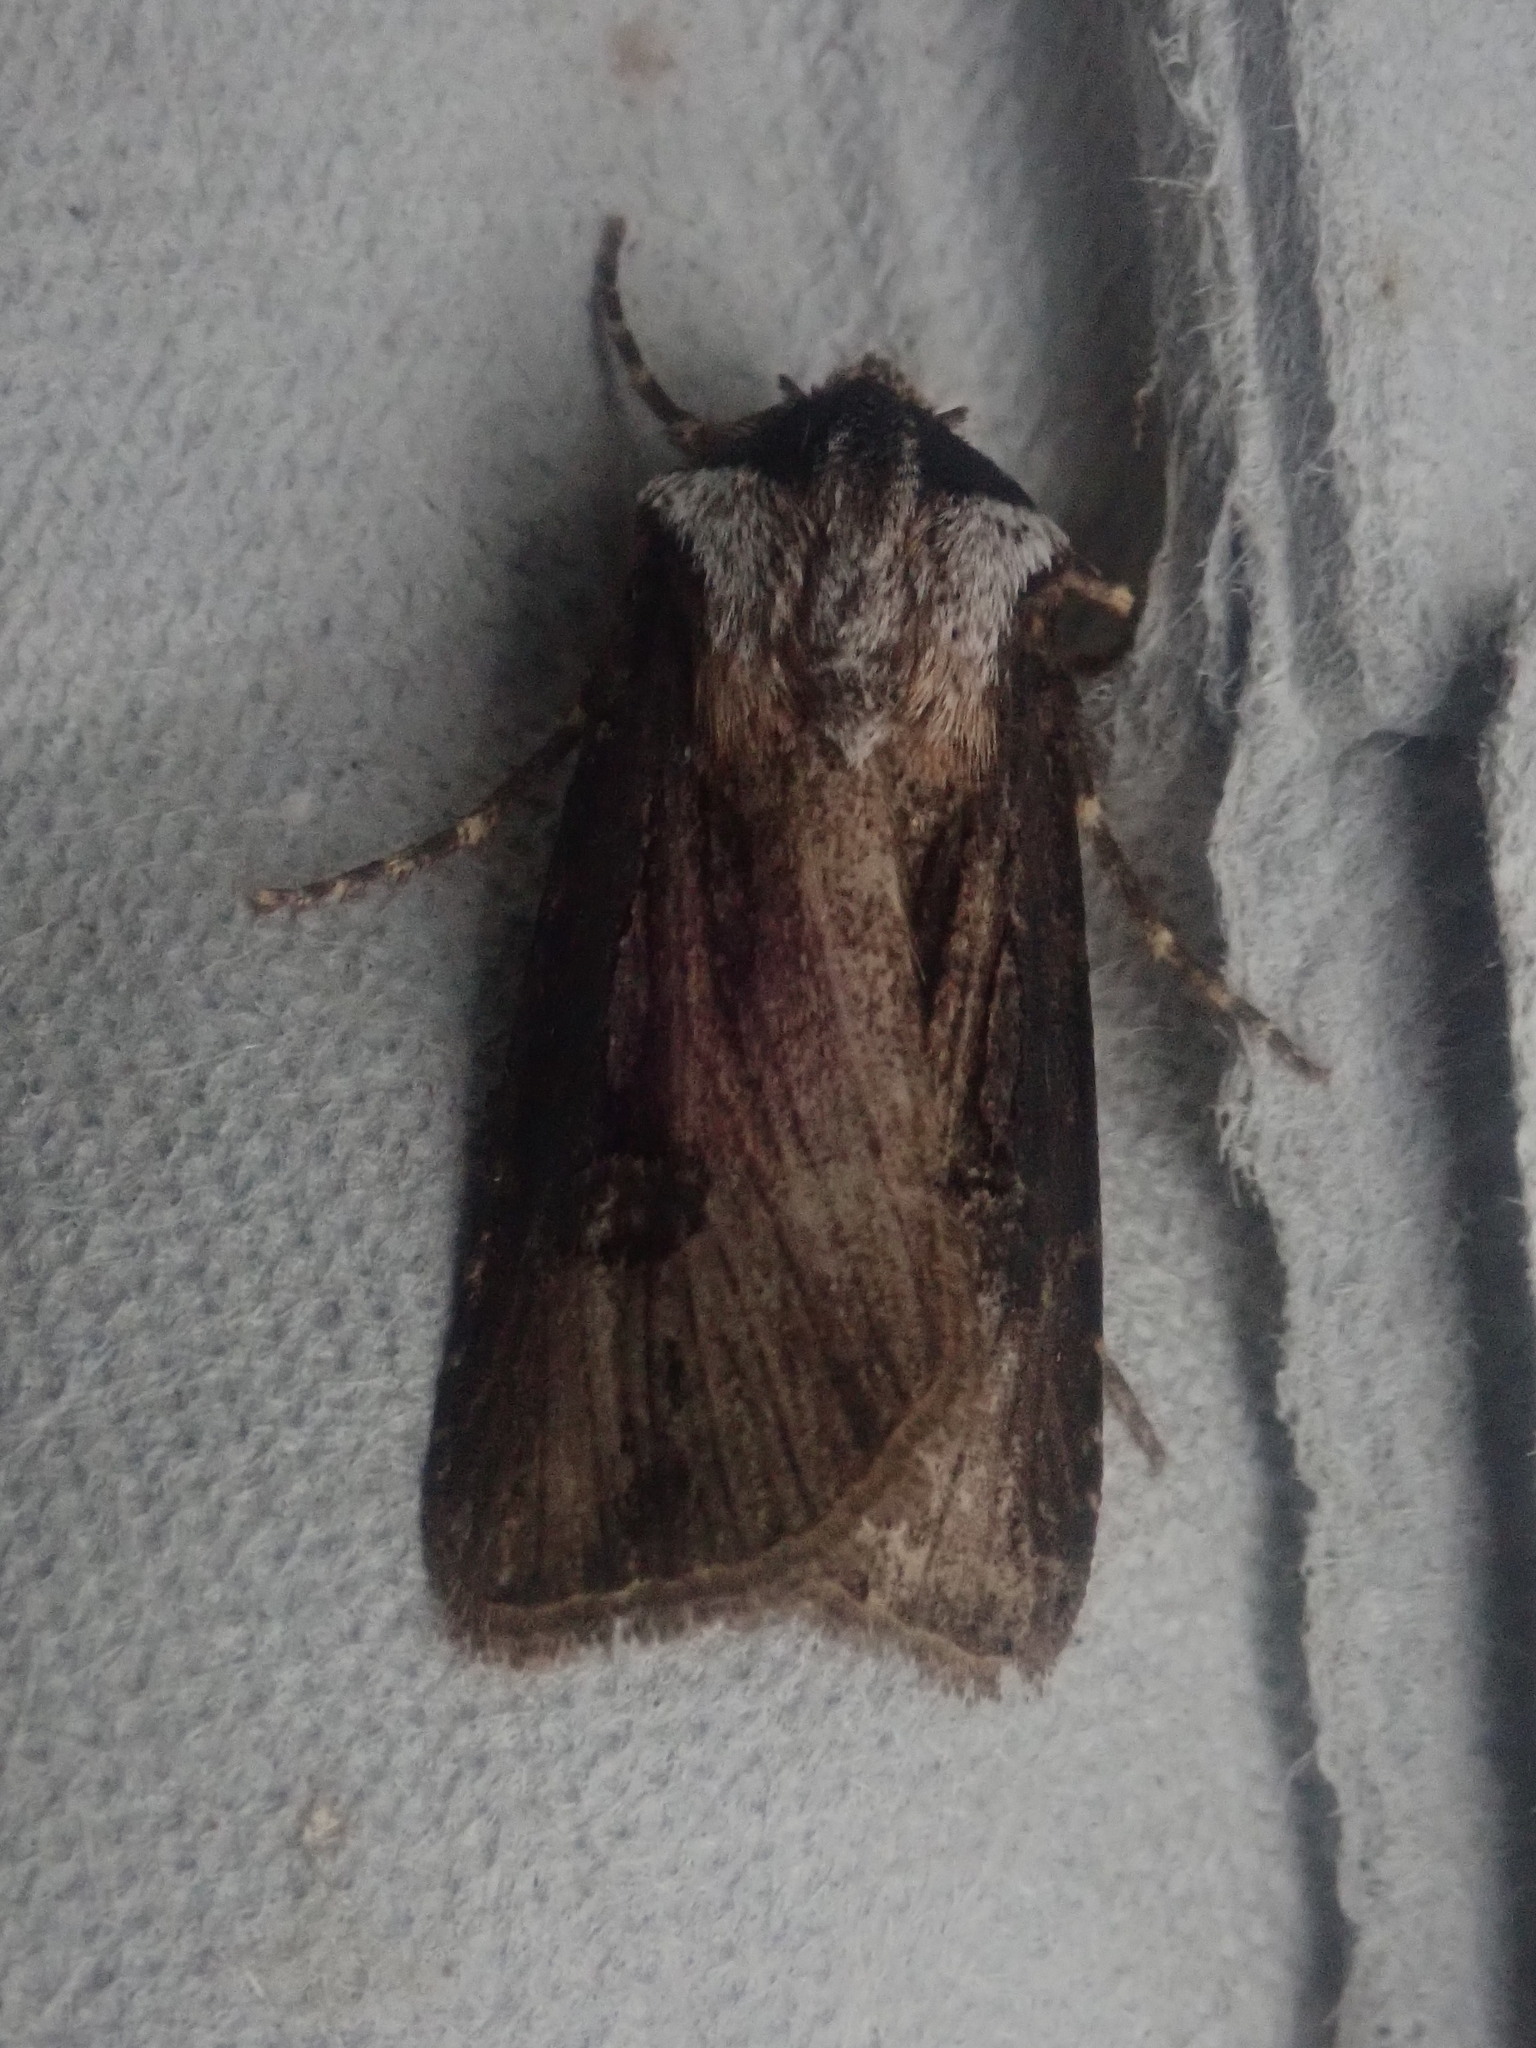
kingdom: Animalia
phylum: Arthropoda
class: Insecta
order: Lepidoptera
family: Noctuidae
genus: Agrotis
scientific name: Agrotis venerabilis
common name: Venerable dart
